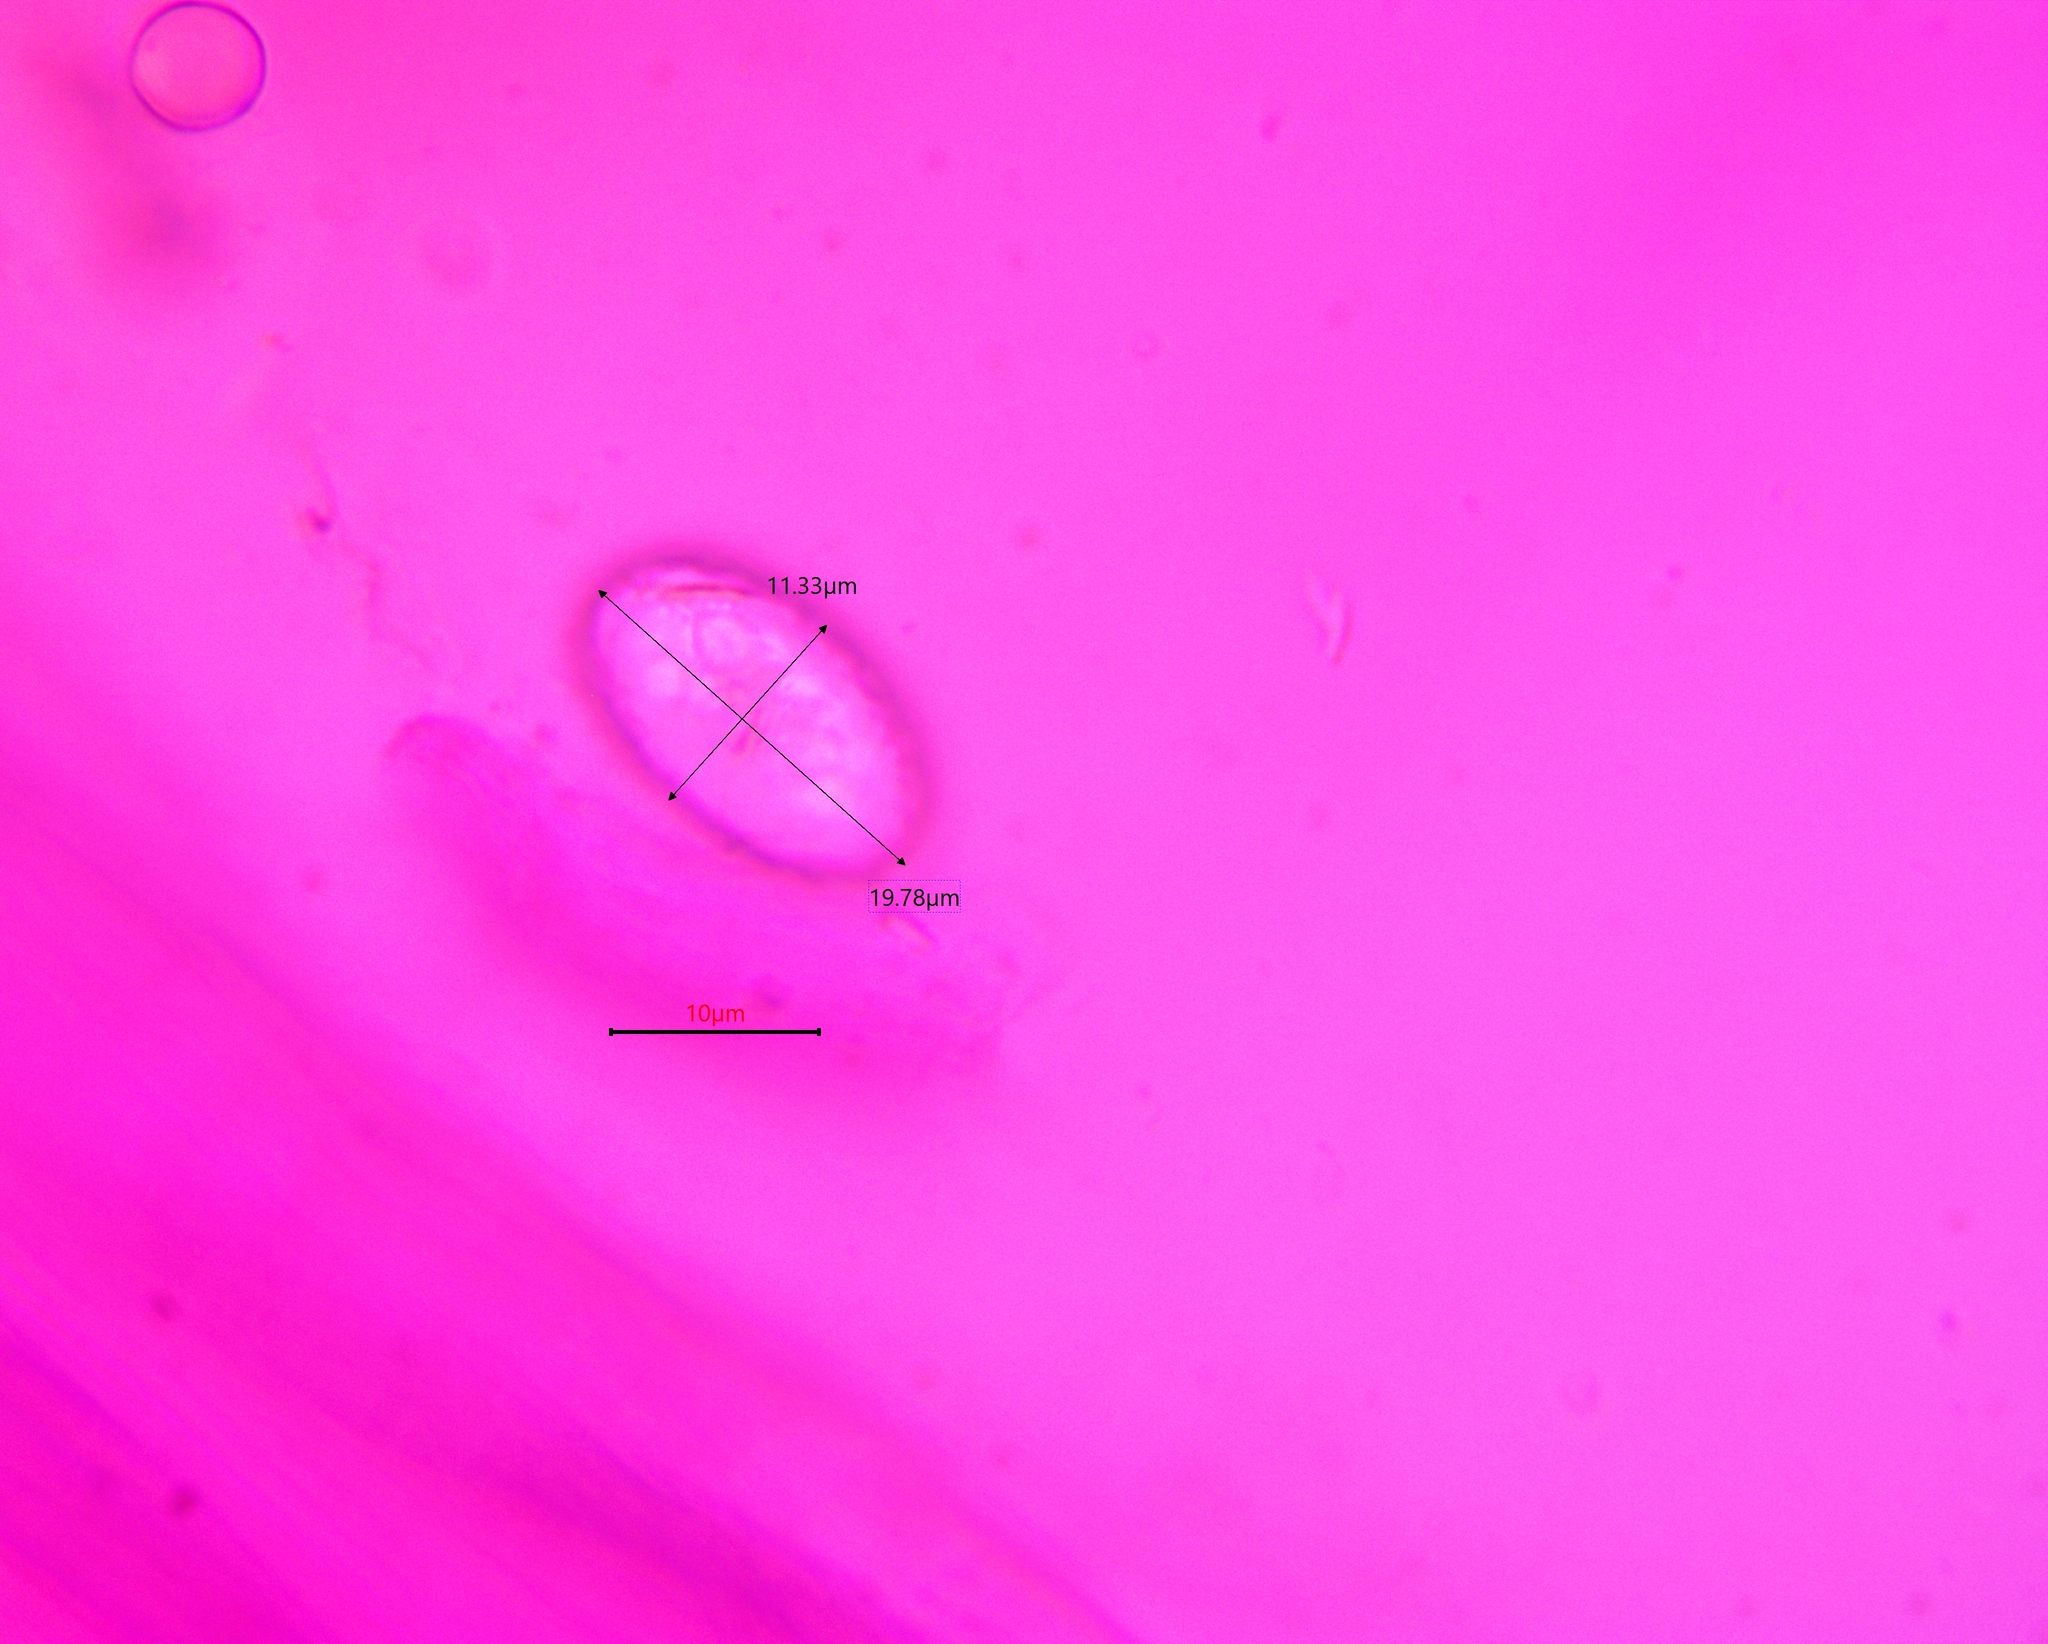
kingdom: Fungi
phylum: Ascomycota
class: Pezizomycetes
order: Pezizales
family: Pezizaceae
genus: Paragalactinia
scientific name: Paragalactinia michelii
